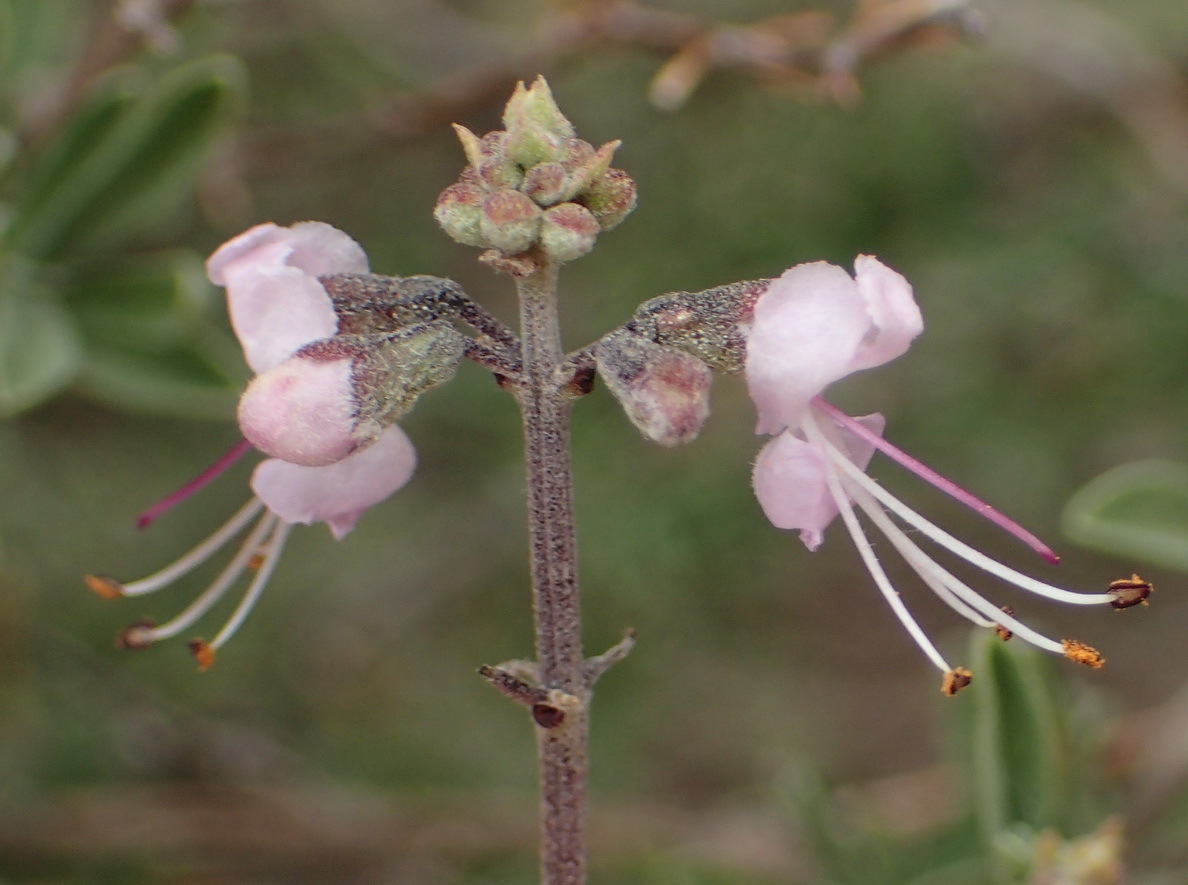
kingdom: Plantae
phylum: Tracheophyta
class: Magnoliopsida
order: Lamiales
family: Lamiaceae
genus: Ocimum
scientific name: Ocimum burchellianum
